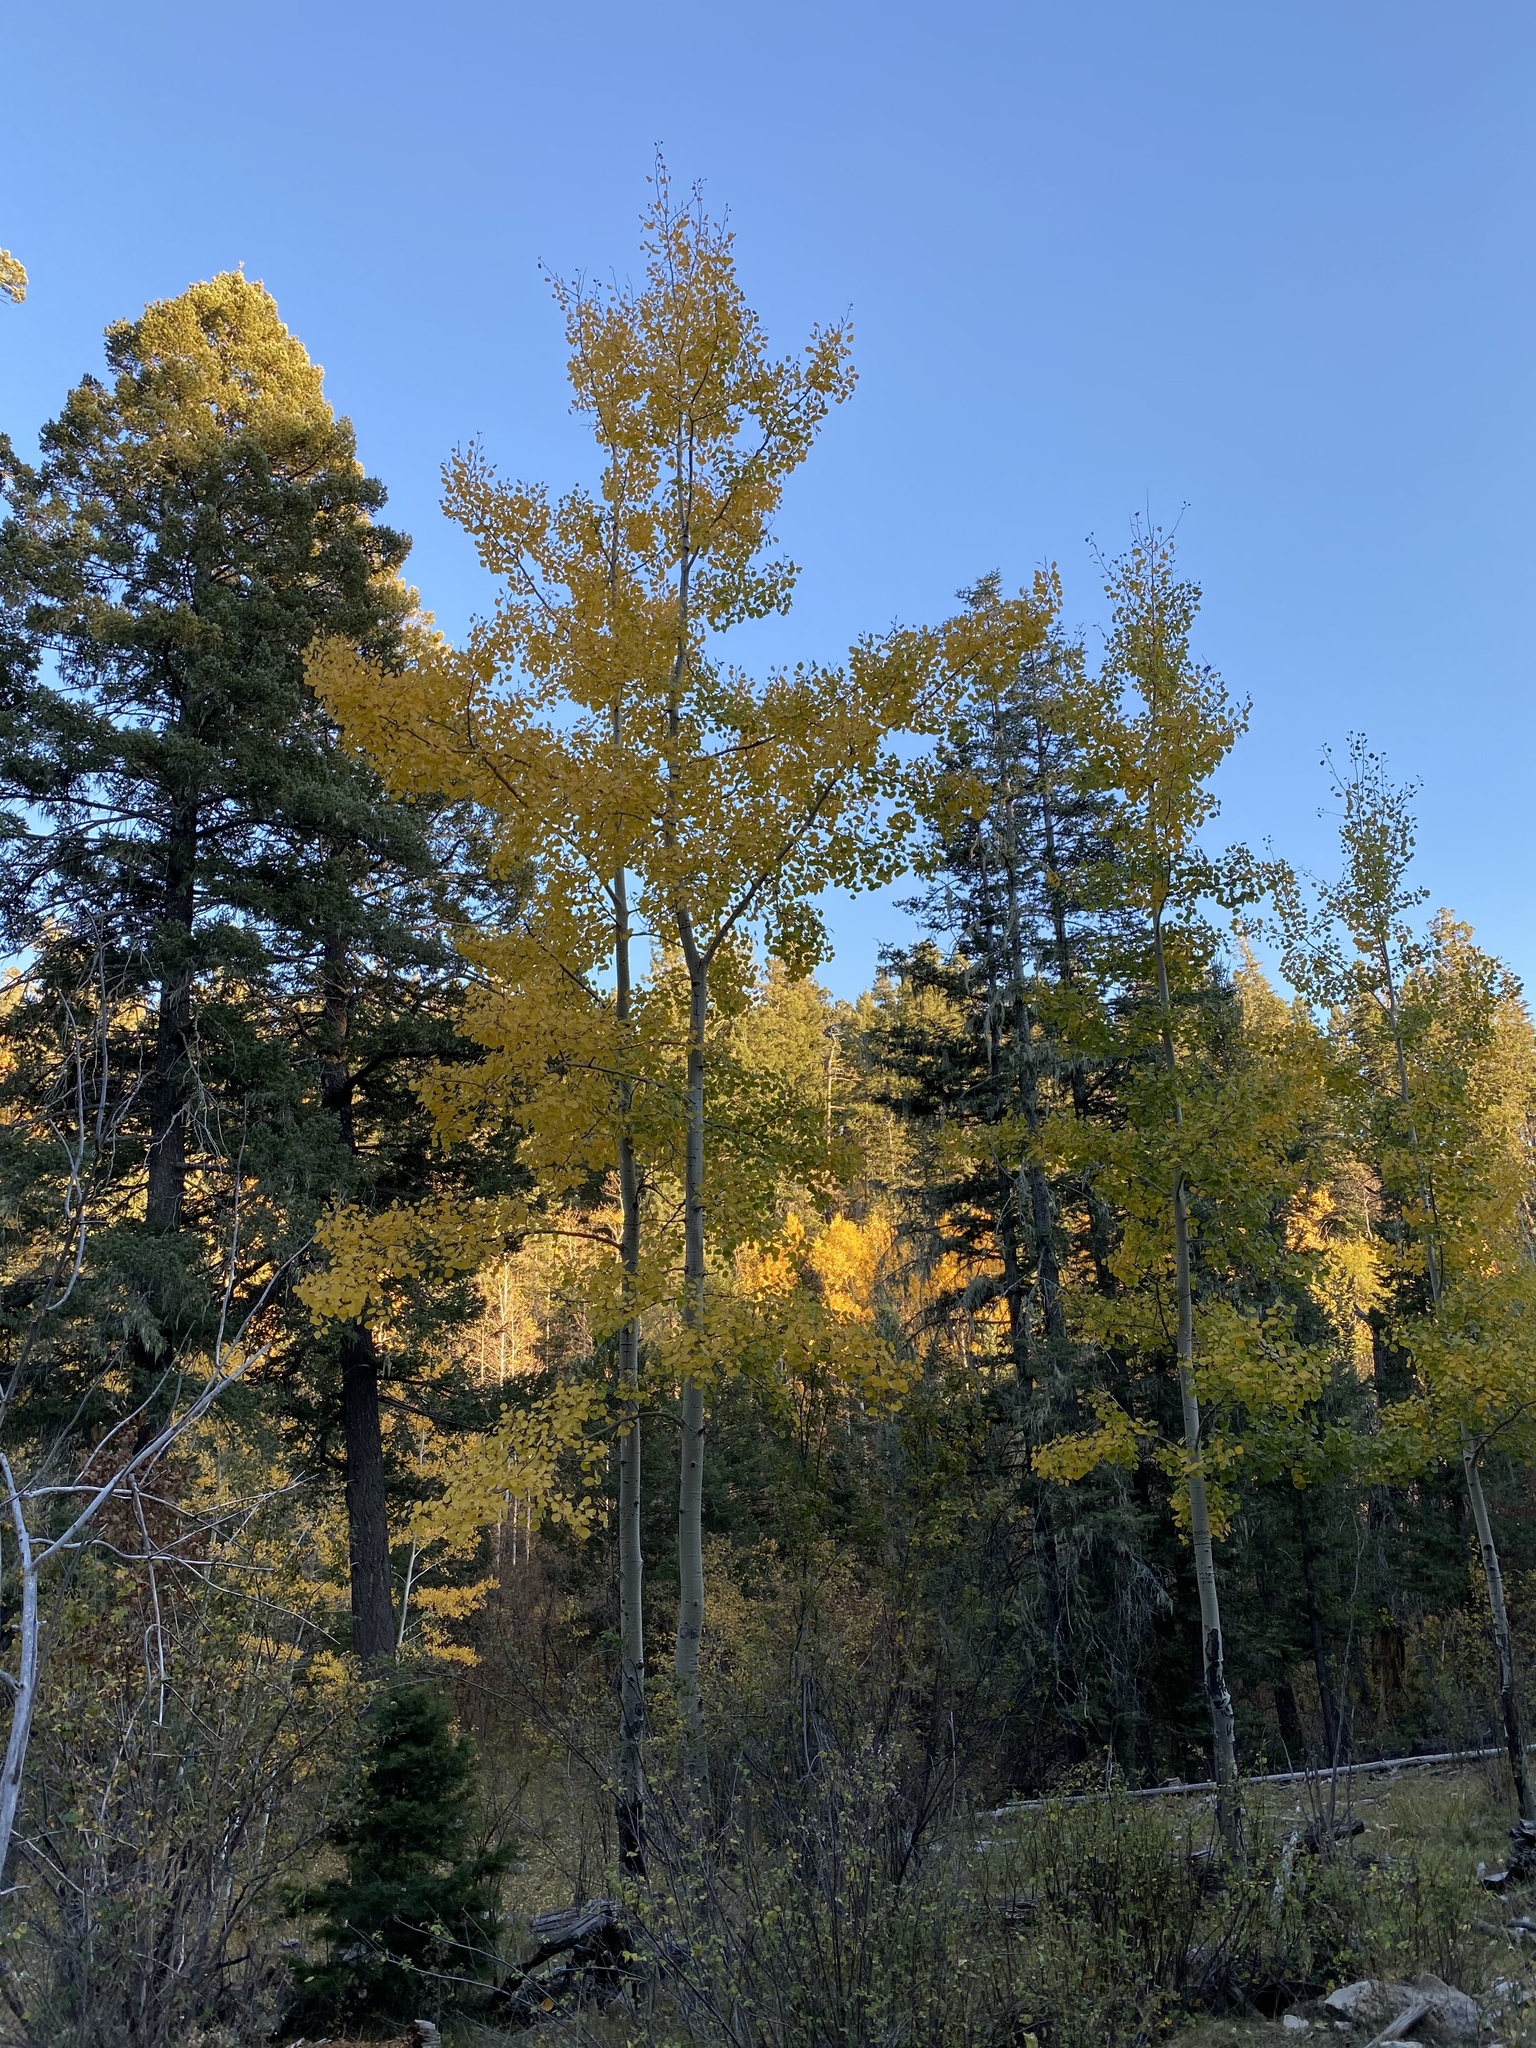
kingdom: Plantae
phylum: Tracheophyta
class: Magnoliopsida
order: Malpighiales
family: Salicaceae
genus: Populus
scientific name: Populus tremuloides
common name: Quaking aspen
